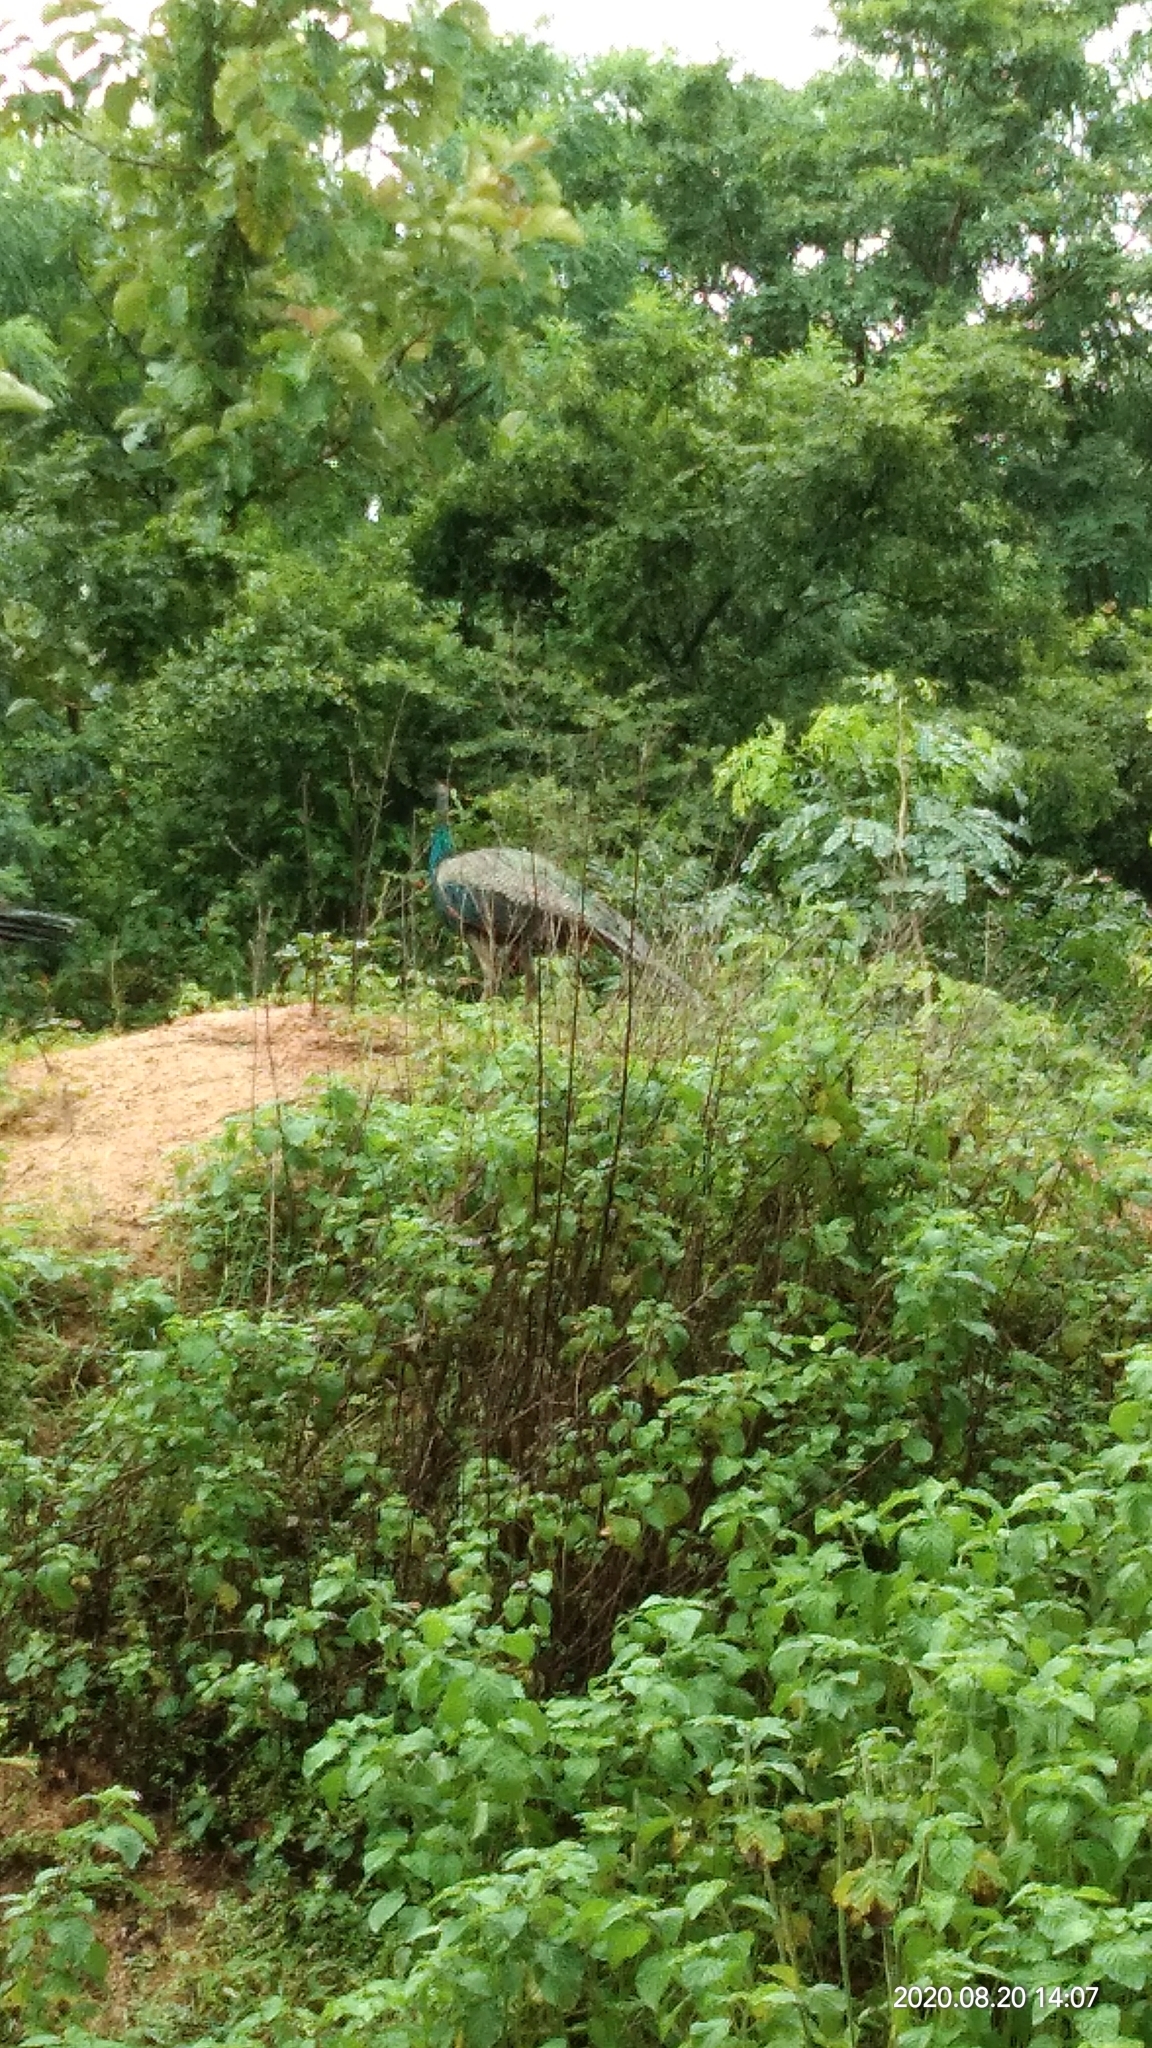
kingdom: Animalia
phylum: Chordata
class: Aves
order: Galliformes
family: Phasianidae
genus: Pavo
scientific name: Pavo cristatus
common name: Indian peafowl
